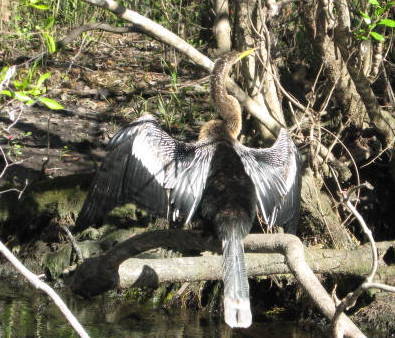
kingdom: Animalia
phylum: Chordata
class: Aves
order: Suliformes
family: Anhingidae
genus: Anhinga
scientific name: Anhinga anhinga
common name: Anhinga
